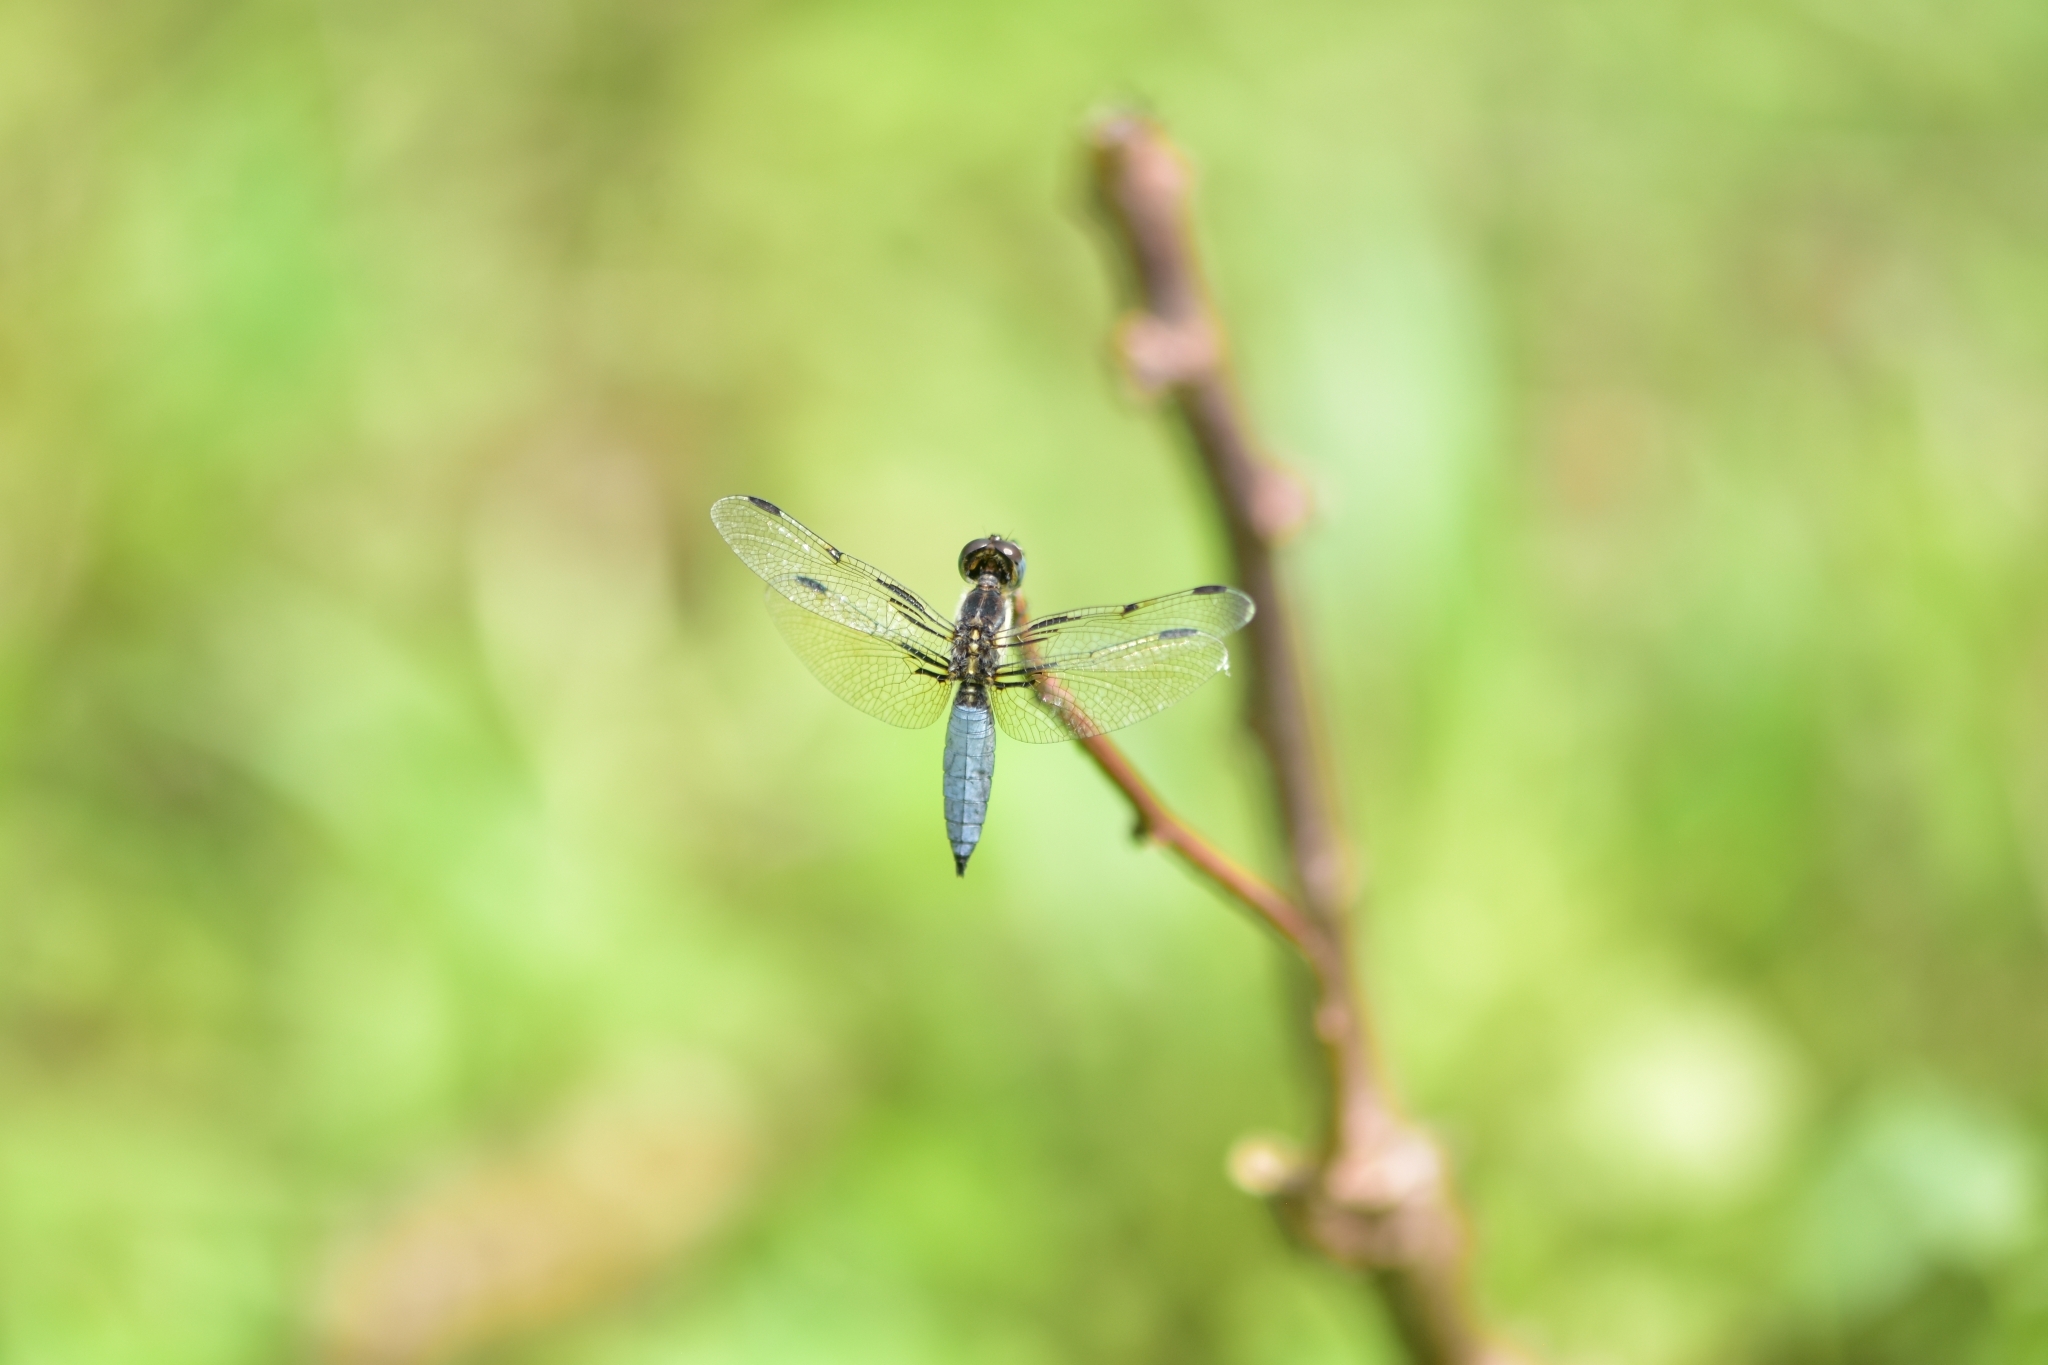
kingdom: Animalia
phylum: Arthropoda
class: Insecta
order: Odonata
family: Libellulidae
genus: Palpopleura
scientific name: Palpopleura sexmaculata
